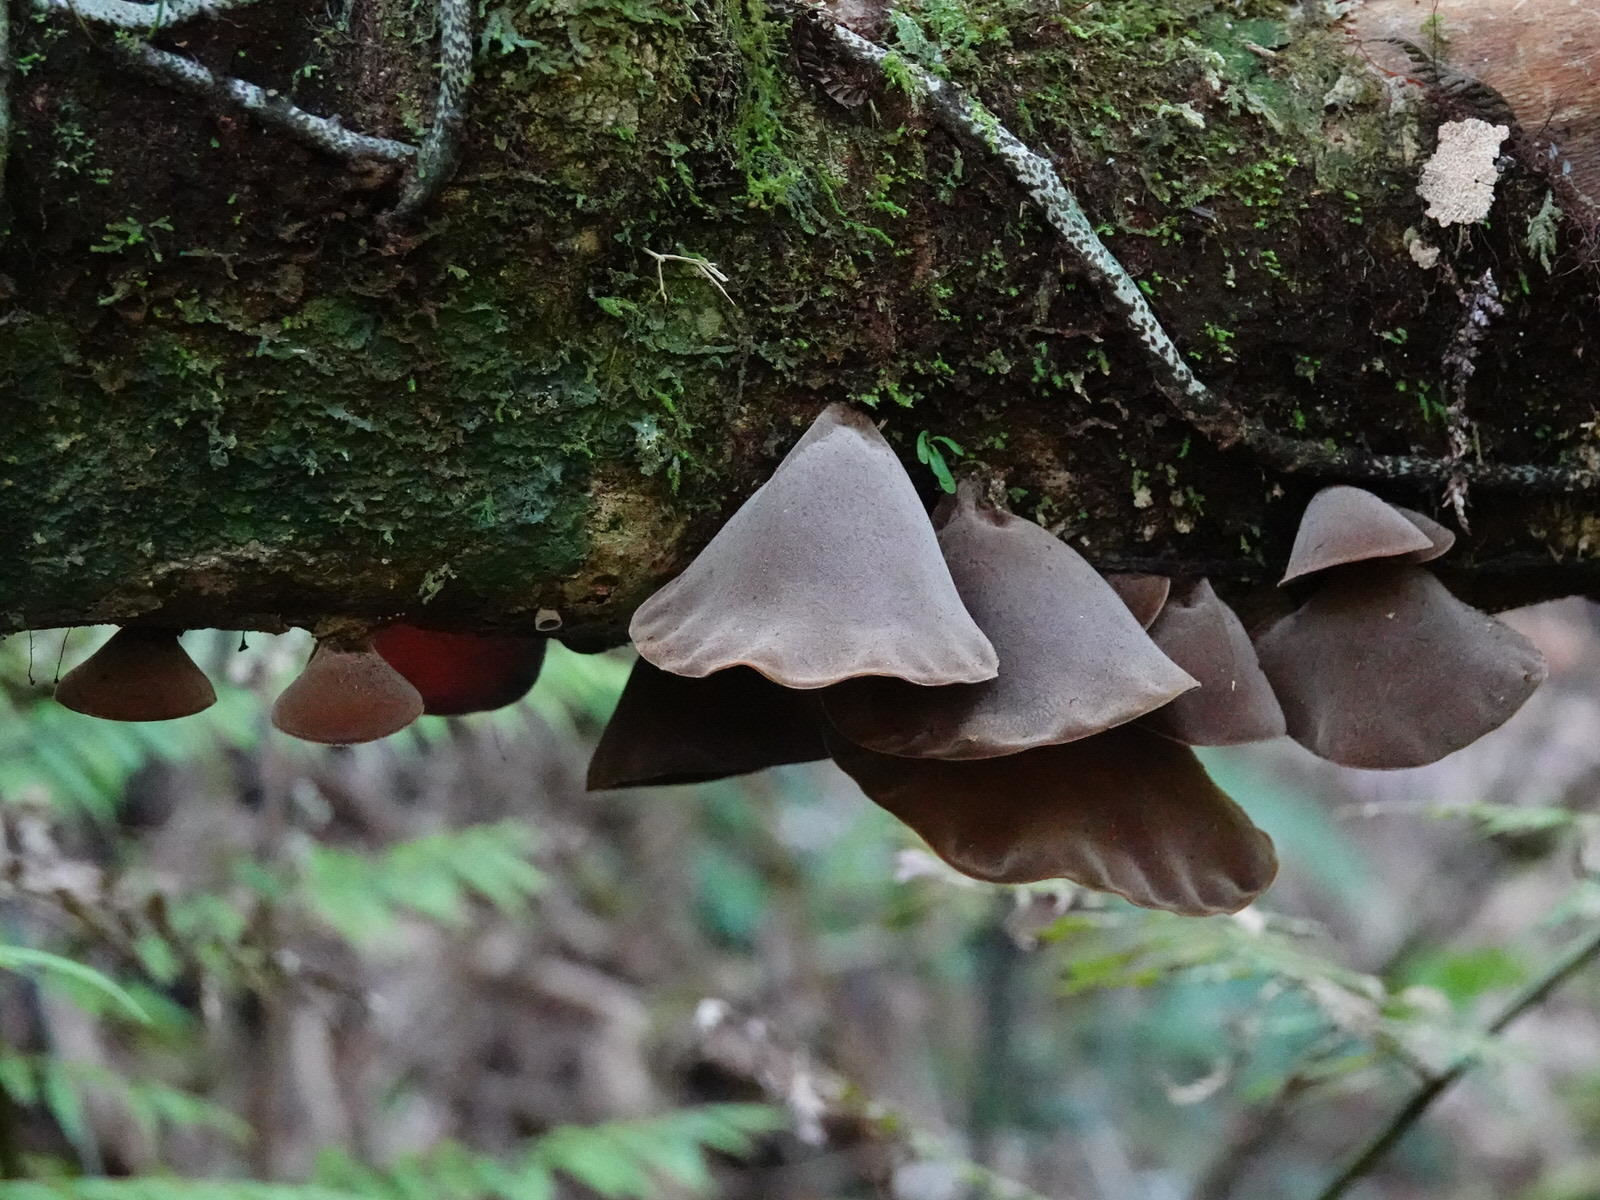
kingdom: Fungi
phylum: Basidiomycota
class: Agaricomycetes
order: Auriculariales
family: Auriculariaceae
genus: Auricularia
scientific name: Auricularia cornea
